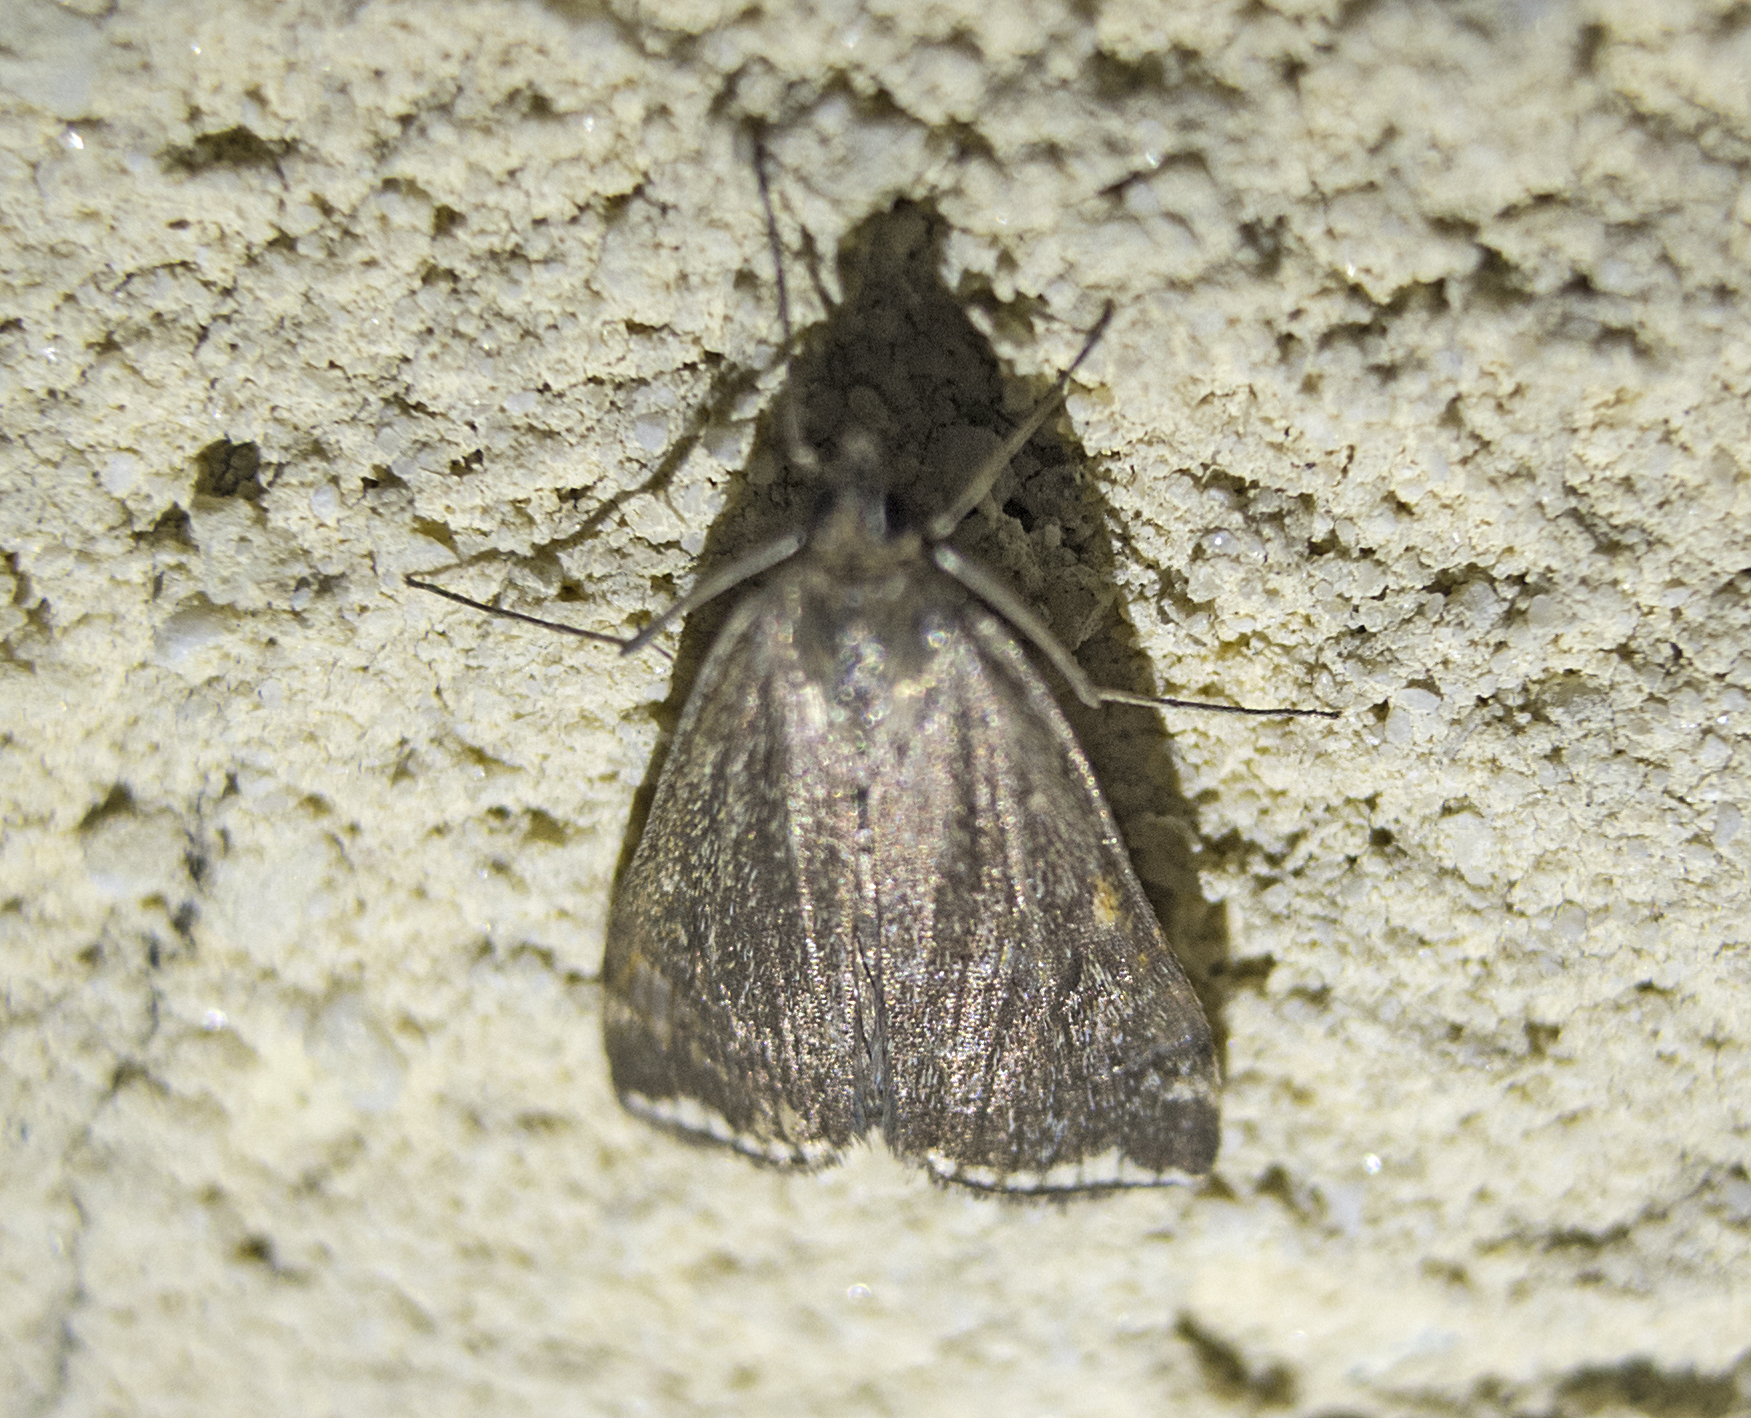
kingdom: Animalia
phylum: Arthropoda
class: Insecta
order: Lepidoptera
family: Crambidae
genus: Loxostege
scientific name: Loxostege sticticalis
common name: Crambid moth
